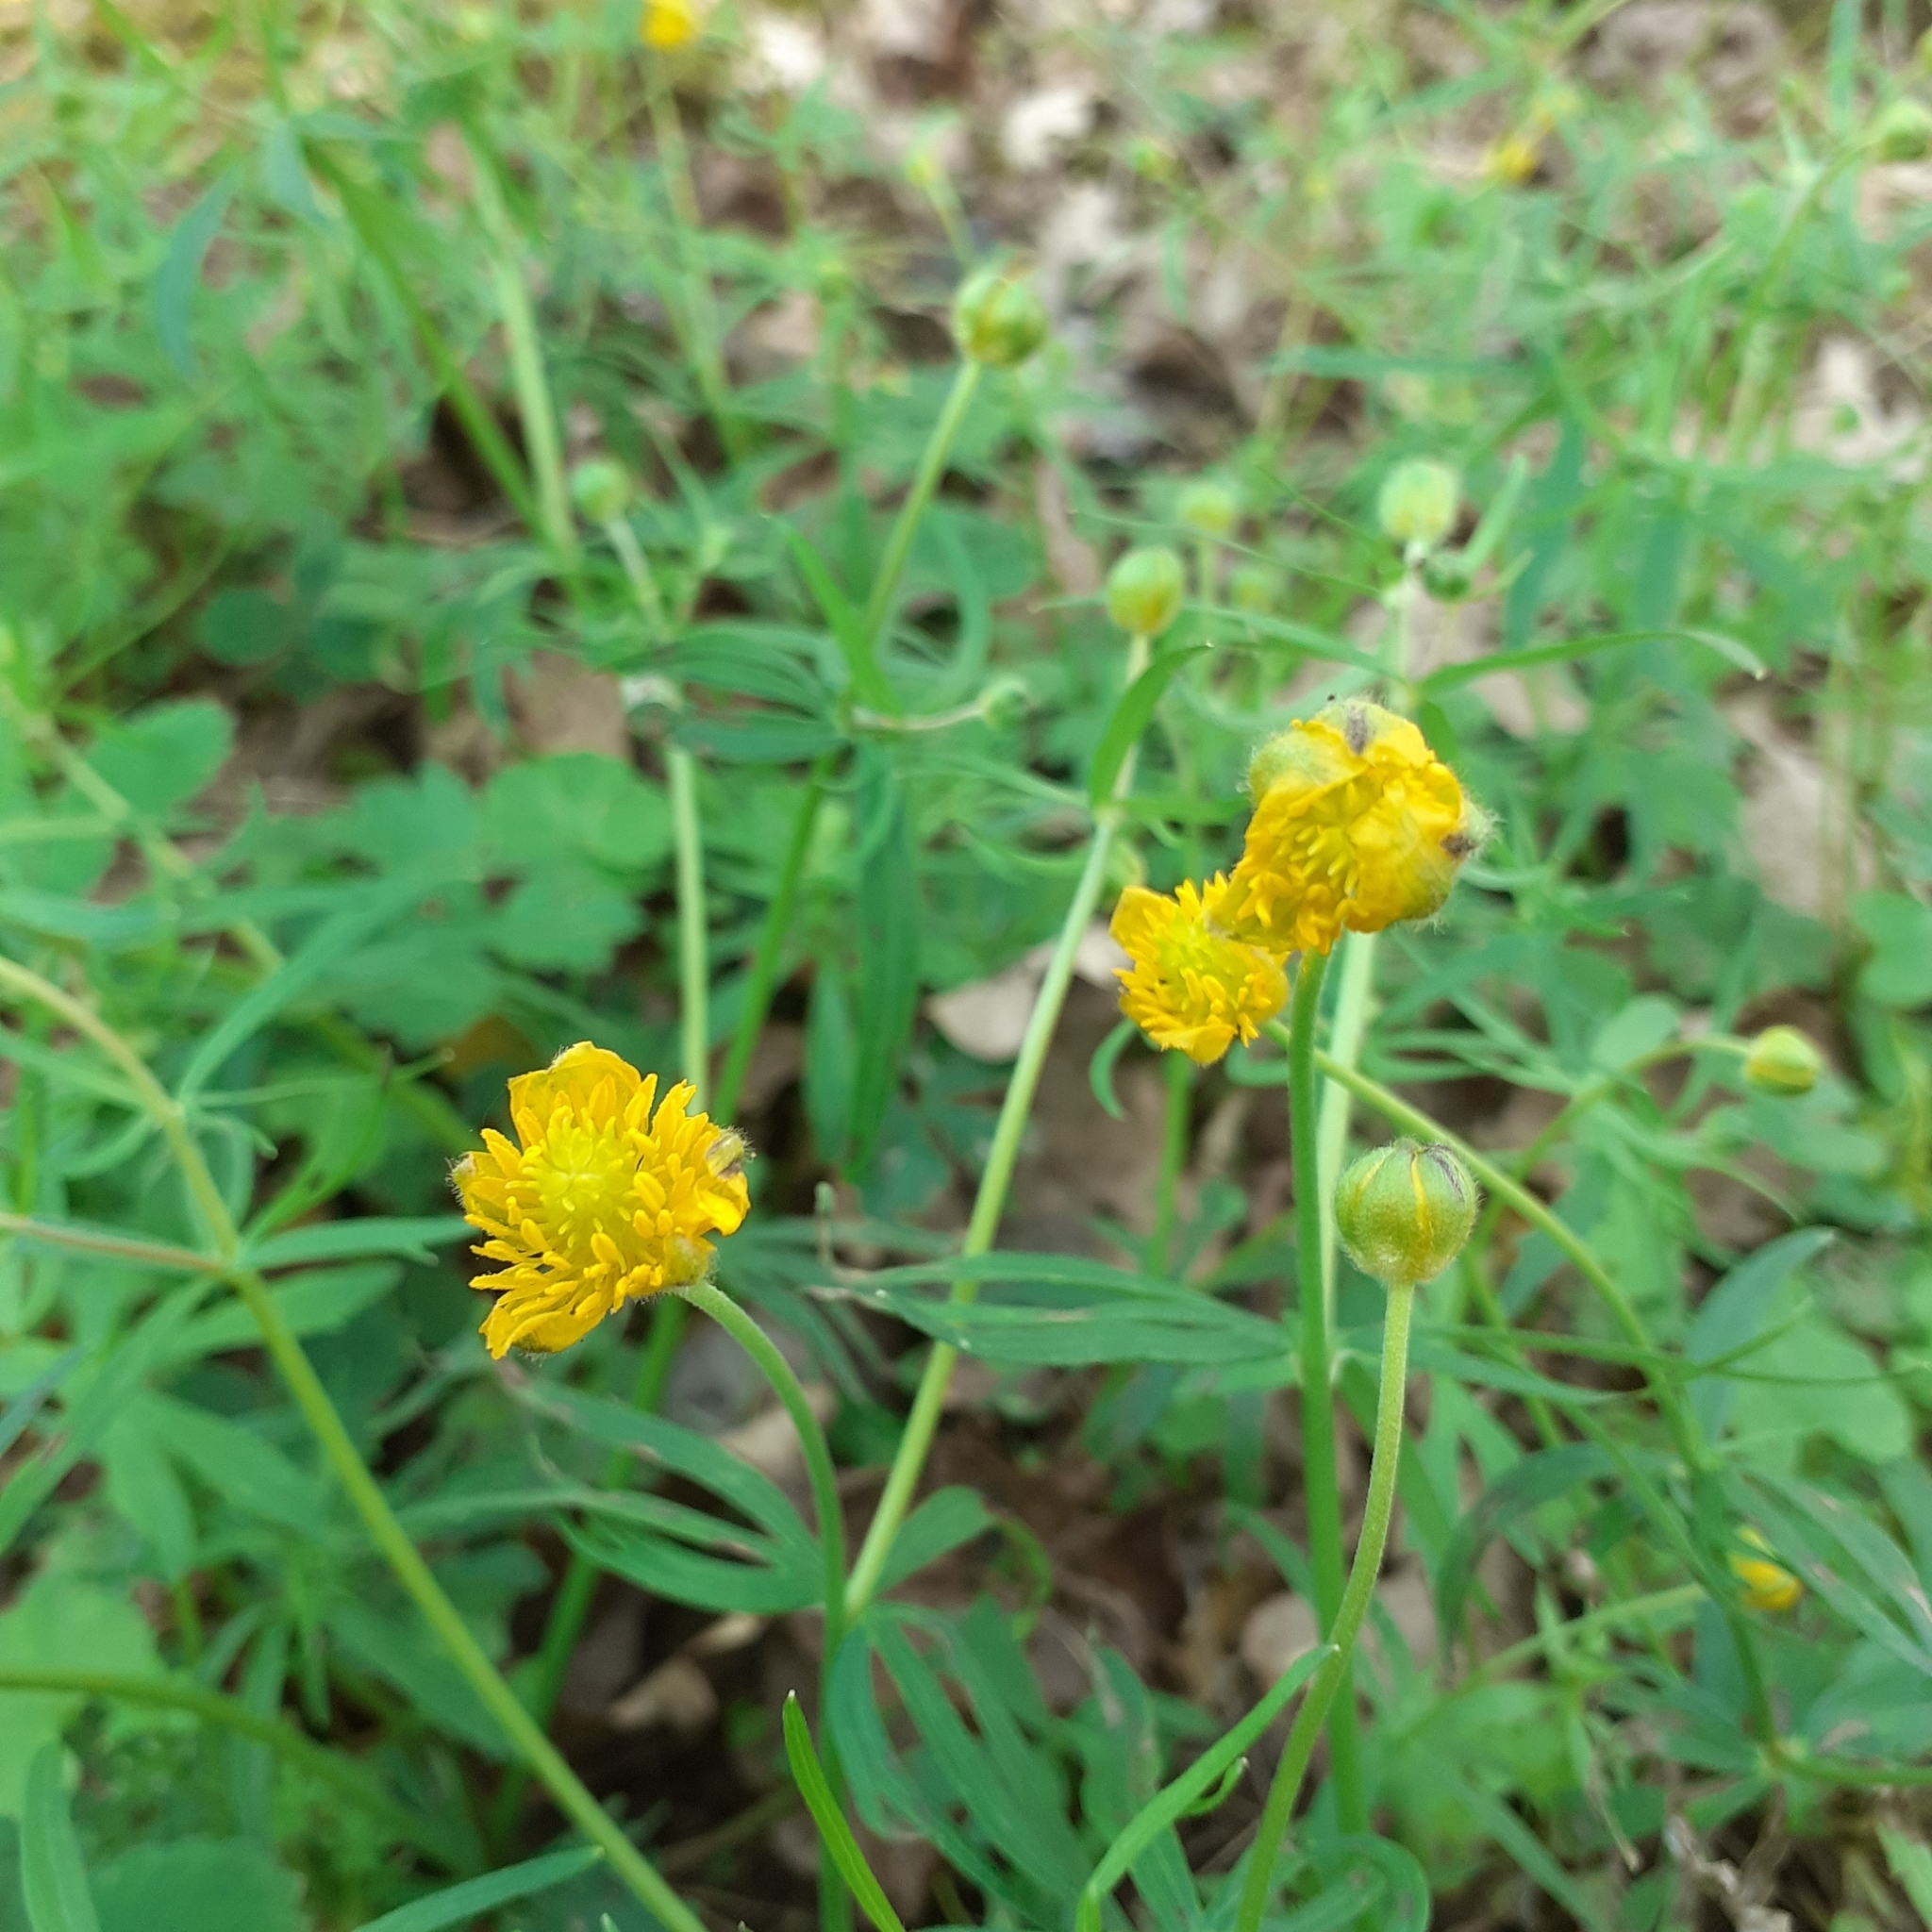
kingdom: Plantae
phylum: Tracheophyta
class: Magnoliopsida
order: Ranunculales
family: Ranunculaceae
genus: Ranunculus
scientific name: Ranunculus auricomus
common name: Goldilocks buttercup
